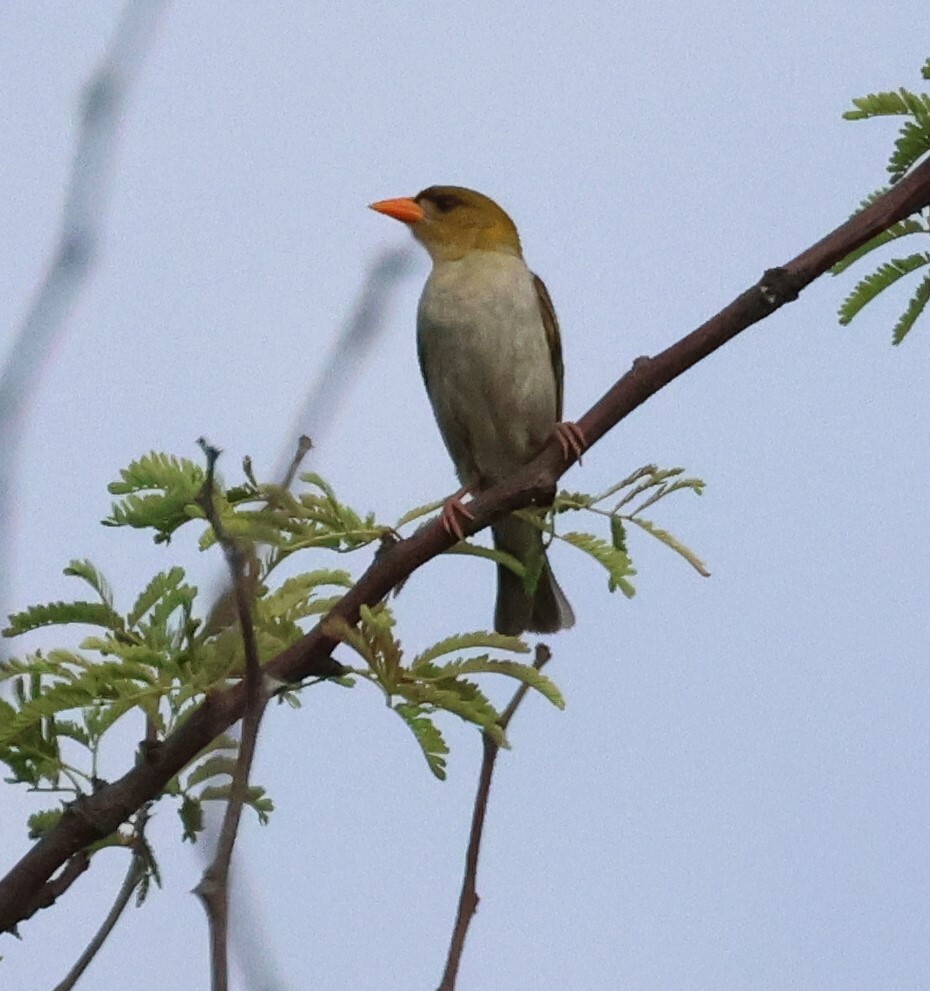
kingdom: Animalia
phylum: Chordata
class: Aves
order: Passeriformes
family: Ploceidae
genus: Anaplectes
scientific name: Anaplectes rubriceps
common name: Red-headed weaver
